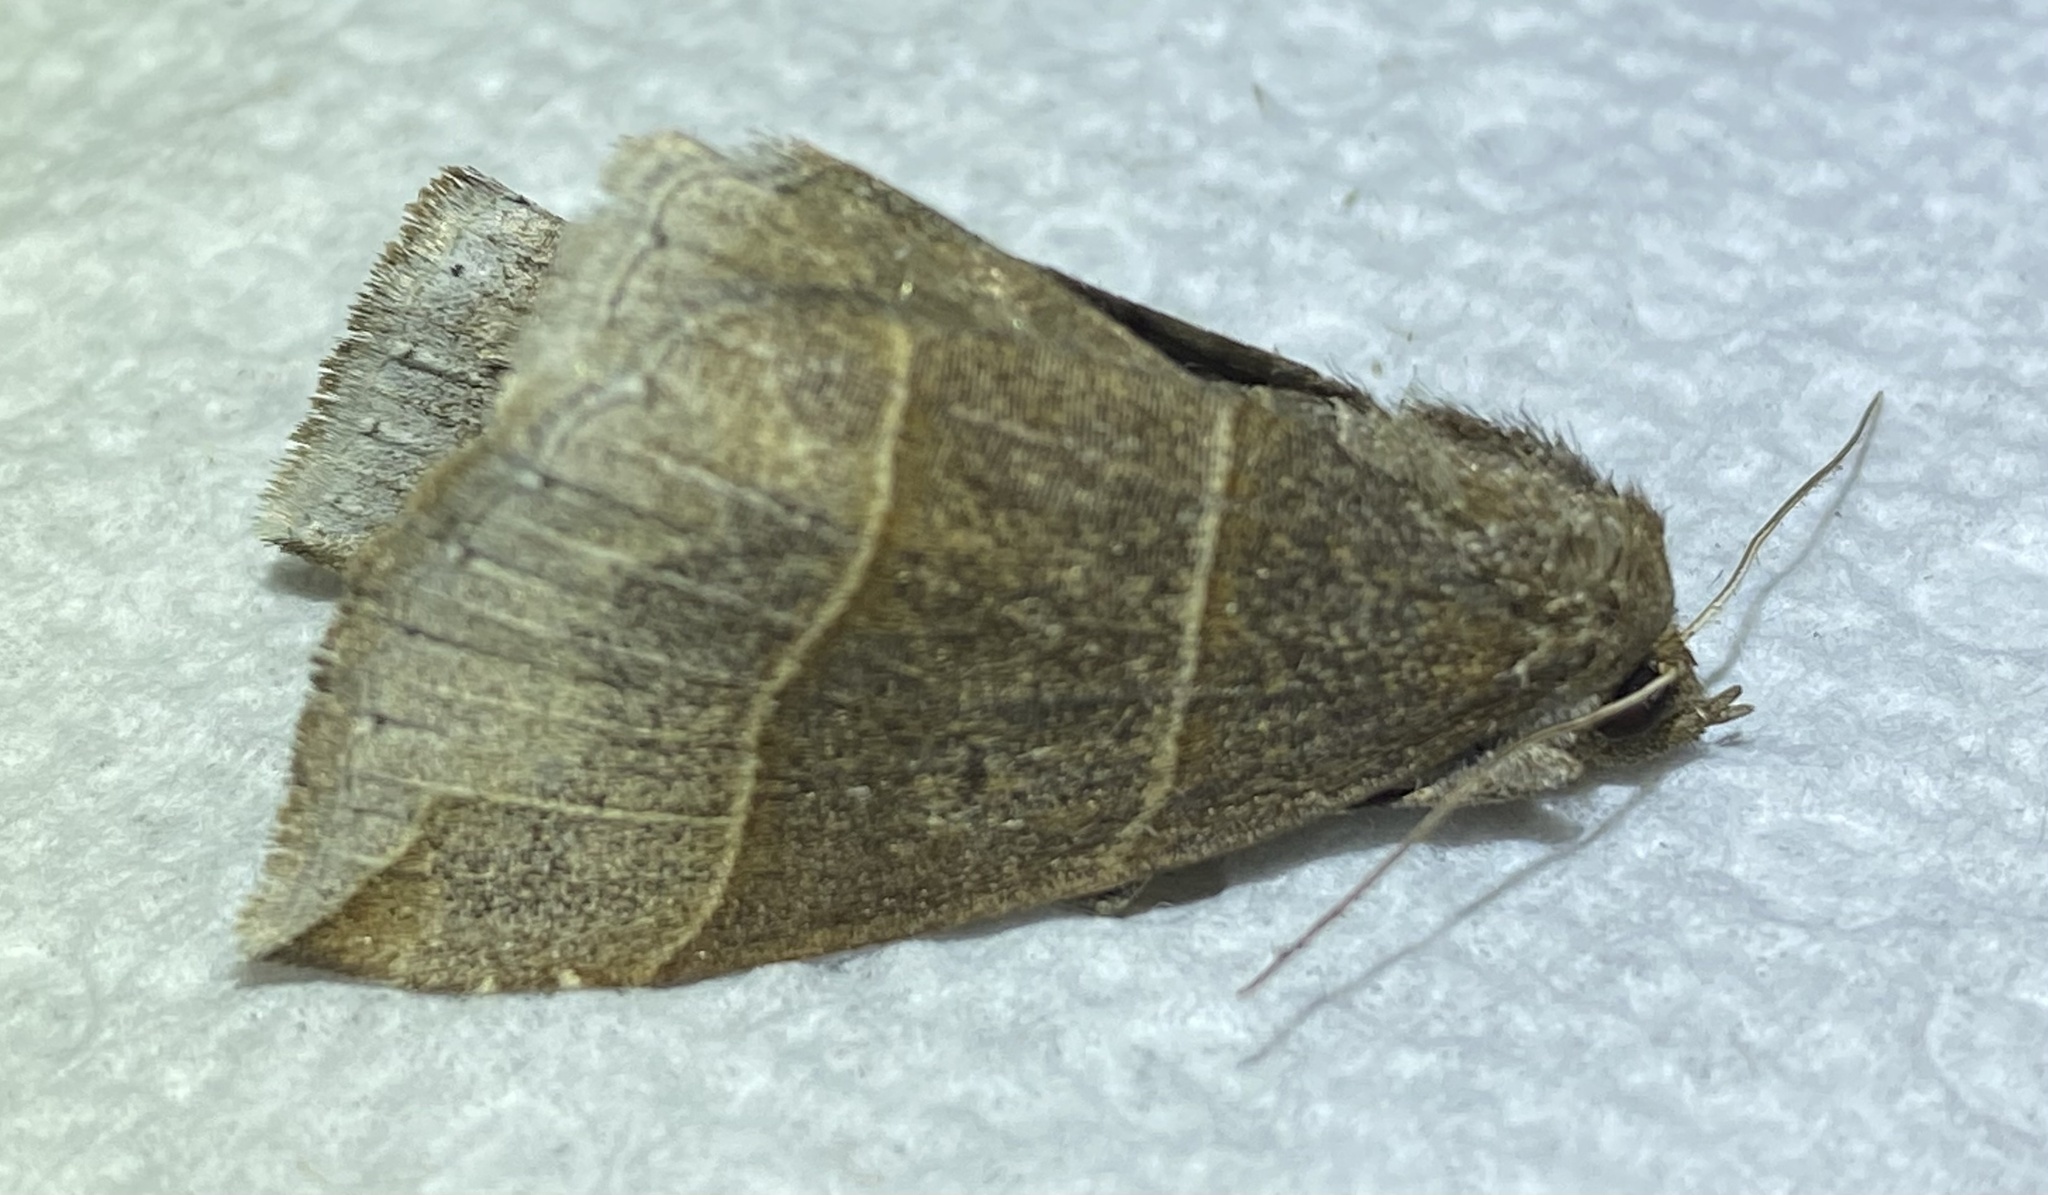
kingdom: Animalia
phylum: Arthropoda
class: Insecta
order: Lepidoptera
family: Erebidae
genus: Parallelia
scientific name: Parallelia bistriaris
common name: Maple looper moth
